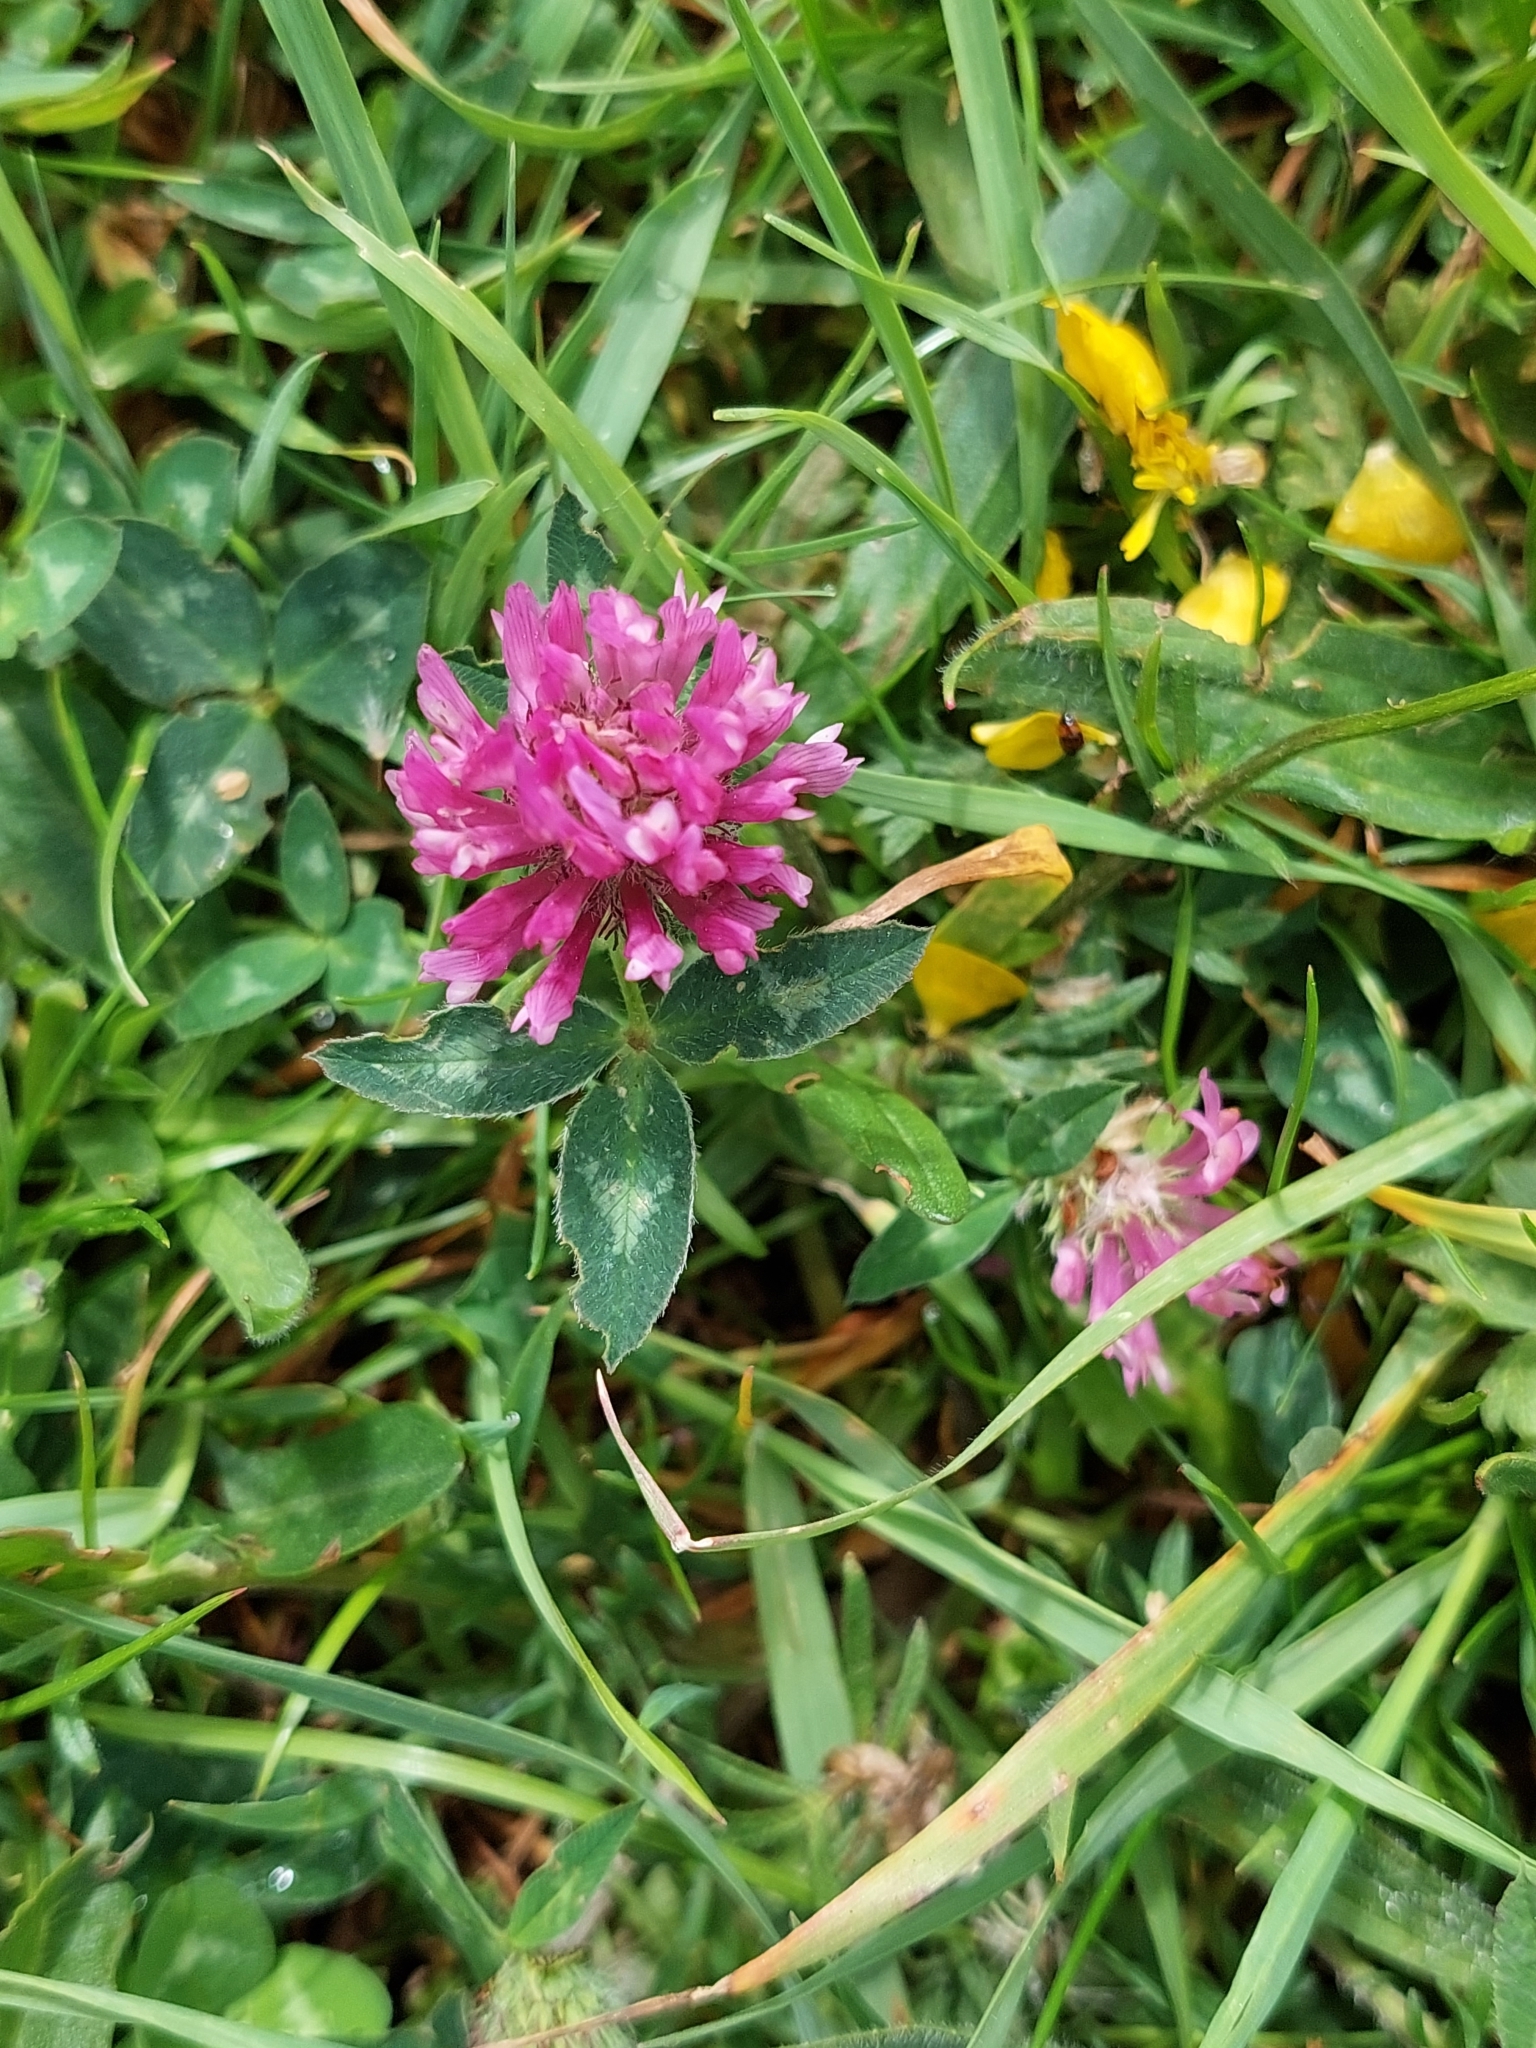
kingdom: Plantae
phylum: Tracheophyta
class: Magnoliopsida
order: Fabales
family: Fabaceae
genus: Trifolium
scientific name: Trifolium pratense
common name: Red clover
